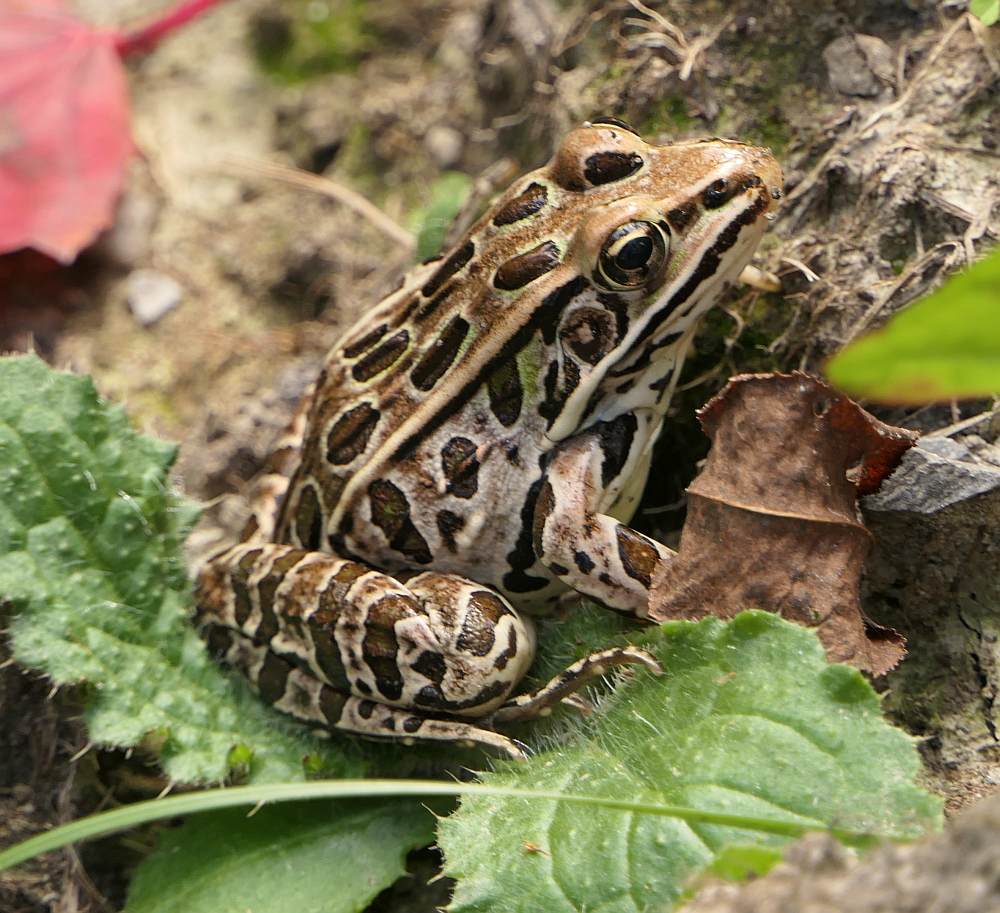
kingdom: Animalia
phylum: Chordata
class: Amphibia
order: Anura
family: Ranidae
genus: Lithobates
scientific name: Lithobates pipiens
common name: Northern leopard frog
